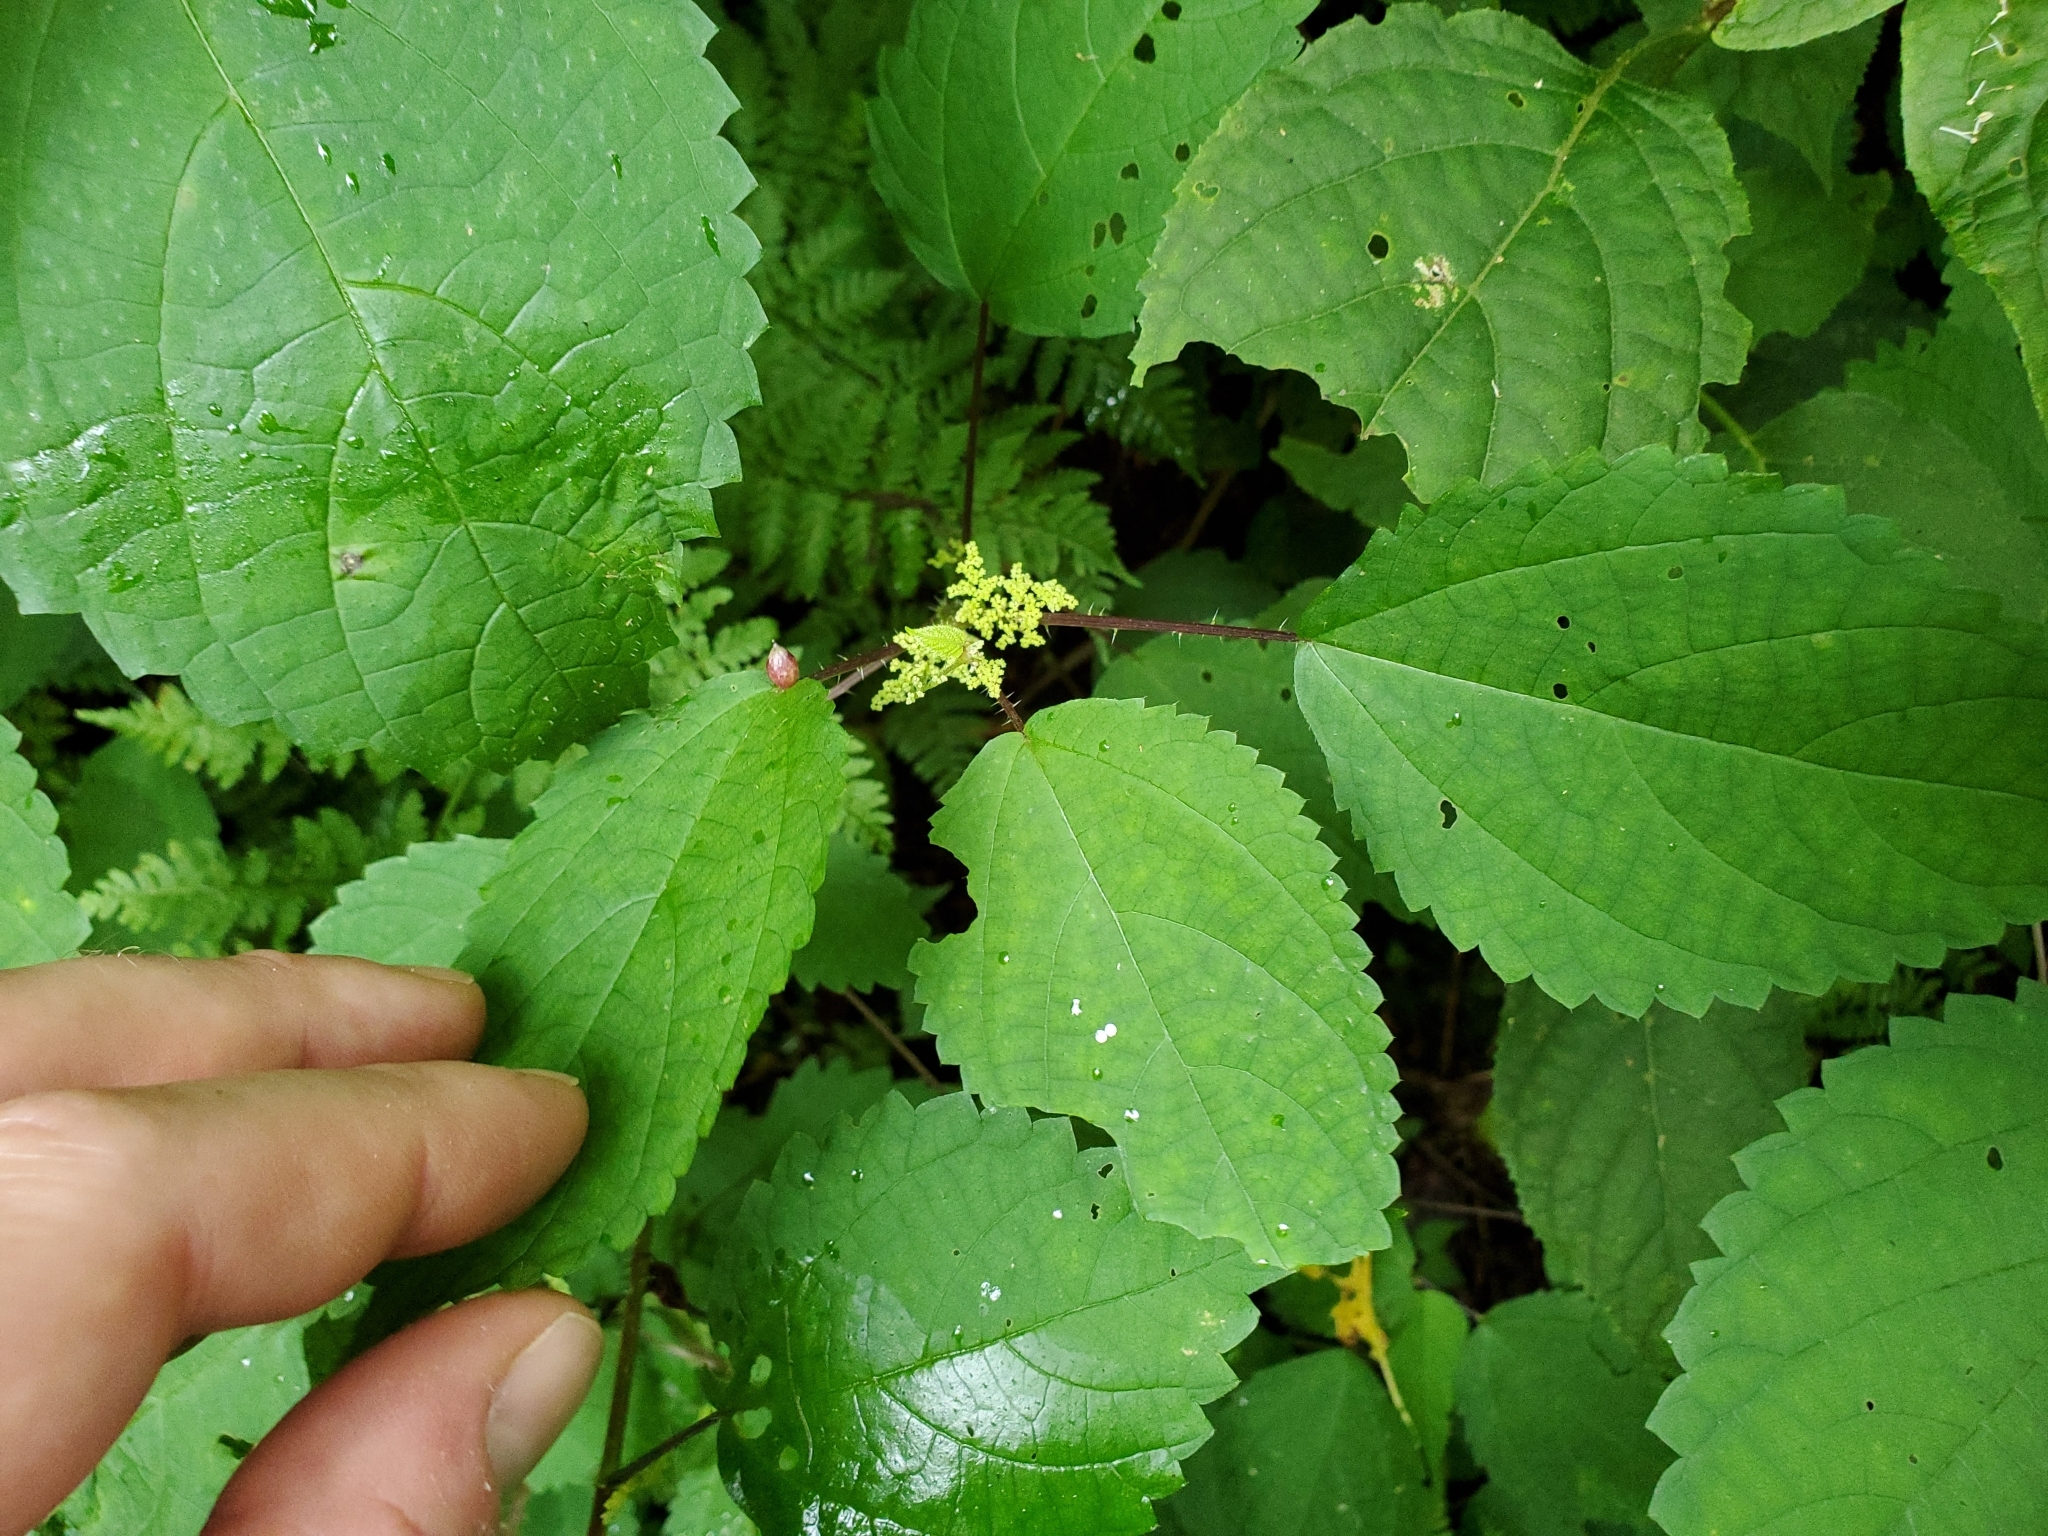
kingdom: Animalia
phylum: Arthropoda
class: Insecta
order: Diptera
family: Cecidomyiidae
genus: Dasineura
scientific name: Dasineura investita
